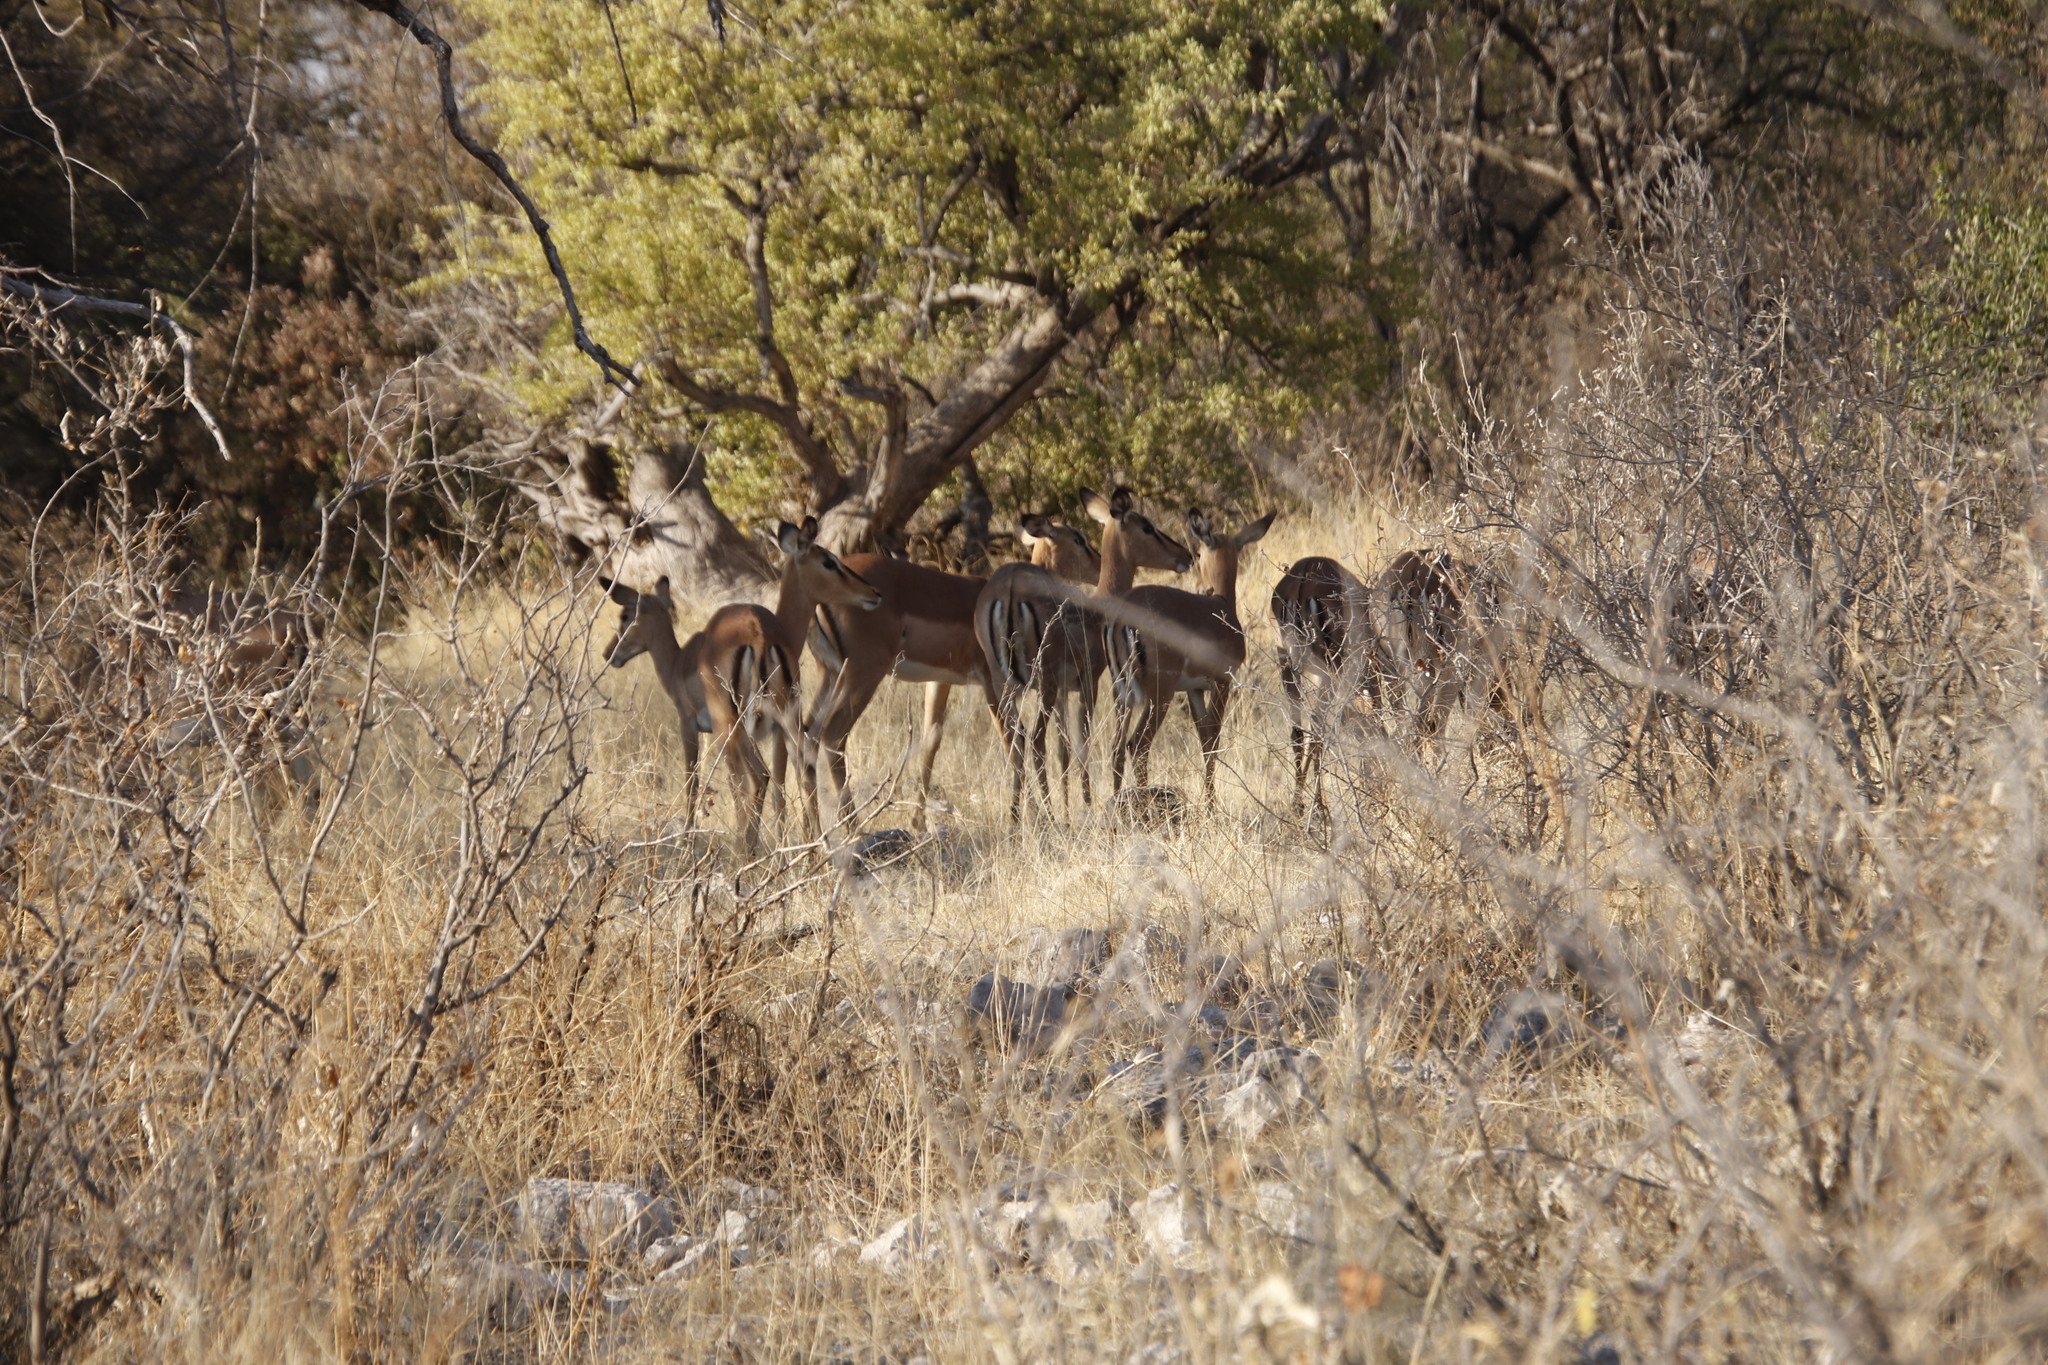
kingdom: Animalia
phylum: Chordata
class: Mammalia
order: Artiodactyla
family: Bovidae
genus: Aepyceros
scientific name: Aepyceros melampus
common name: Impala
